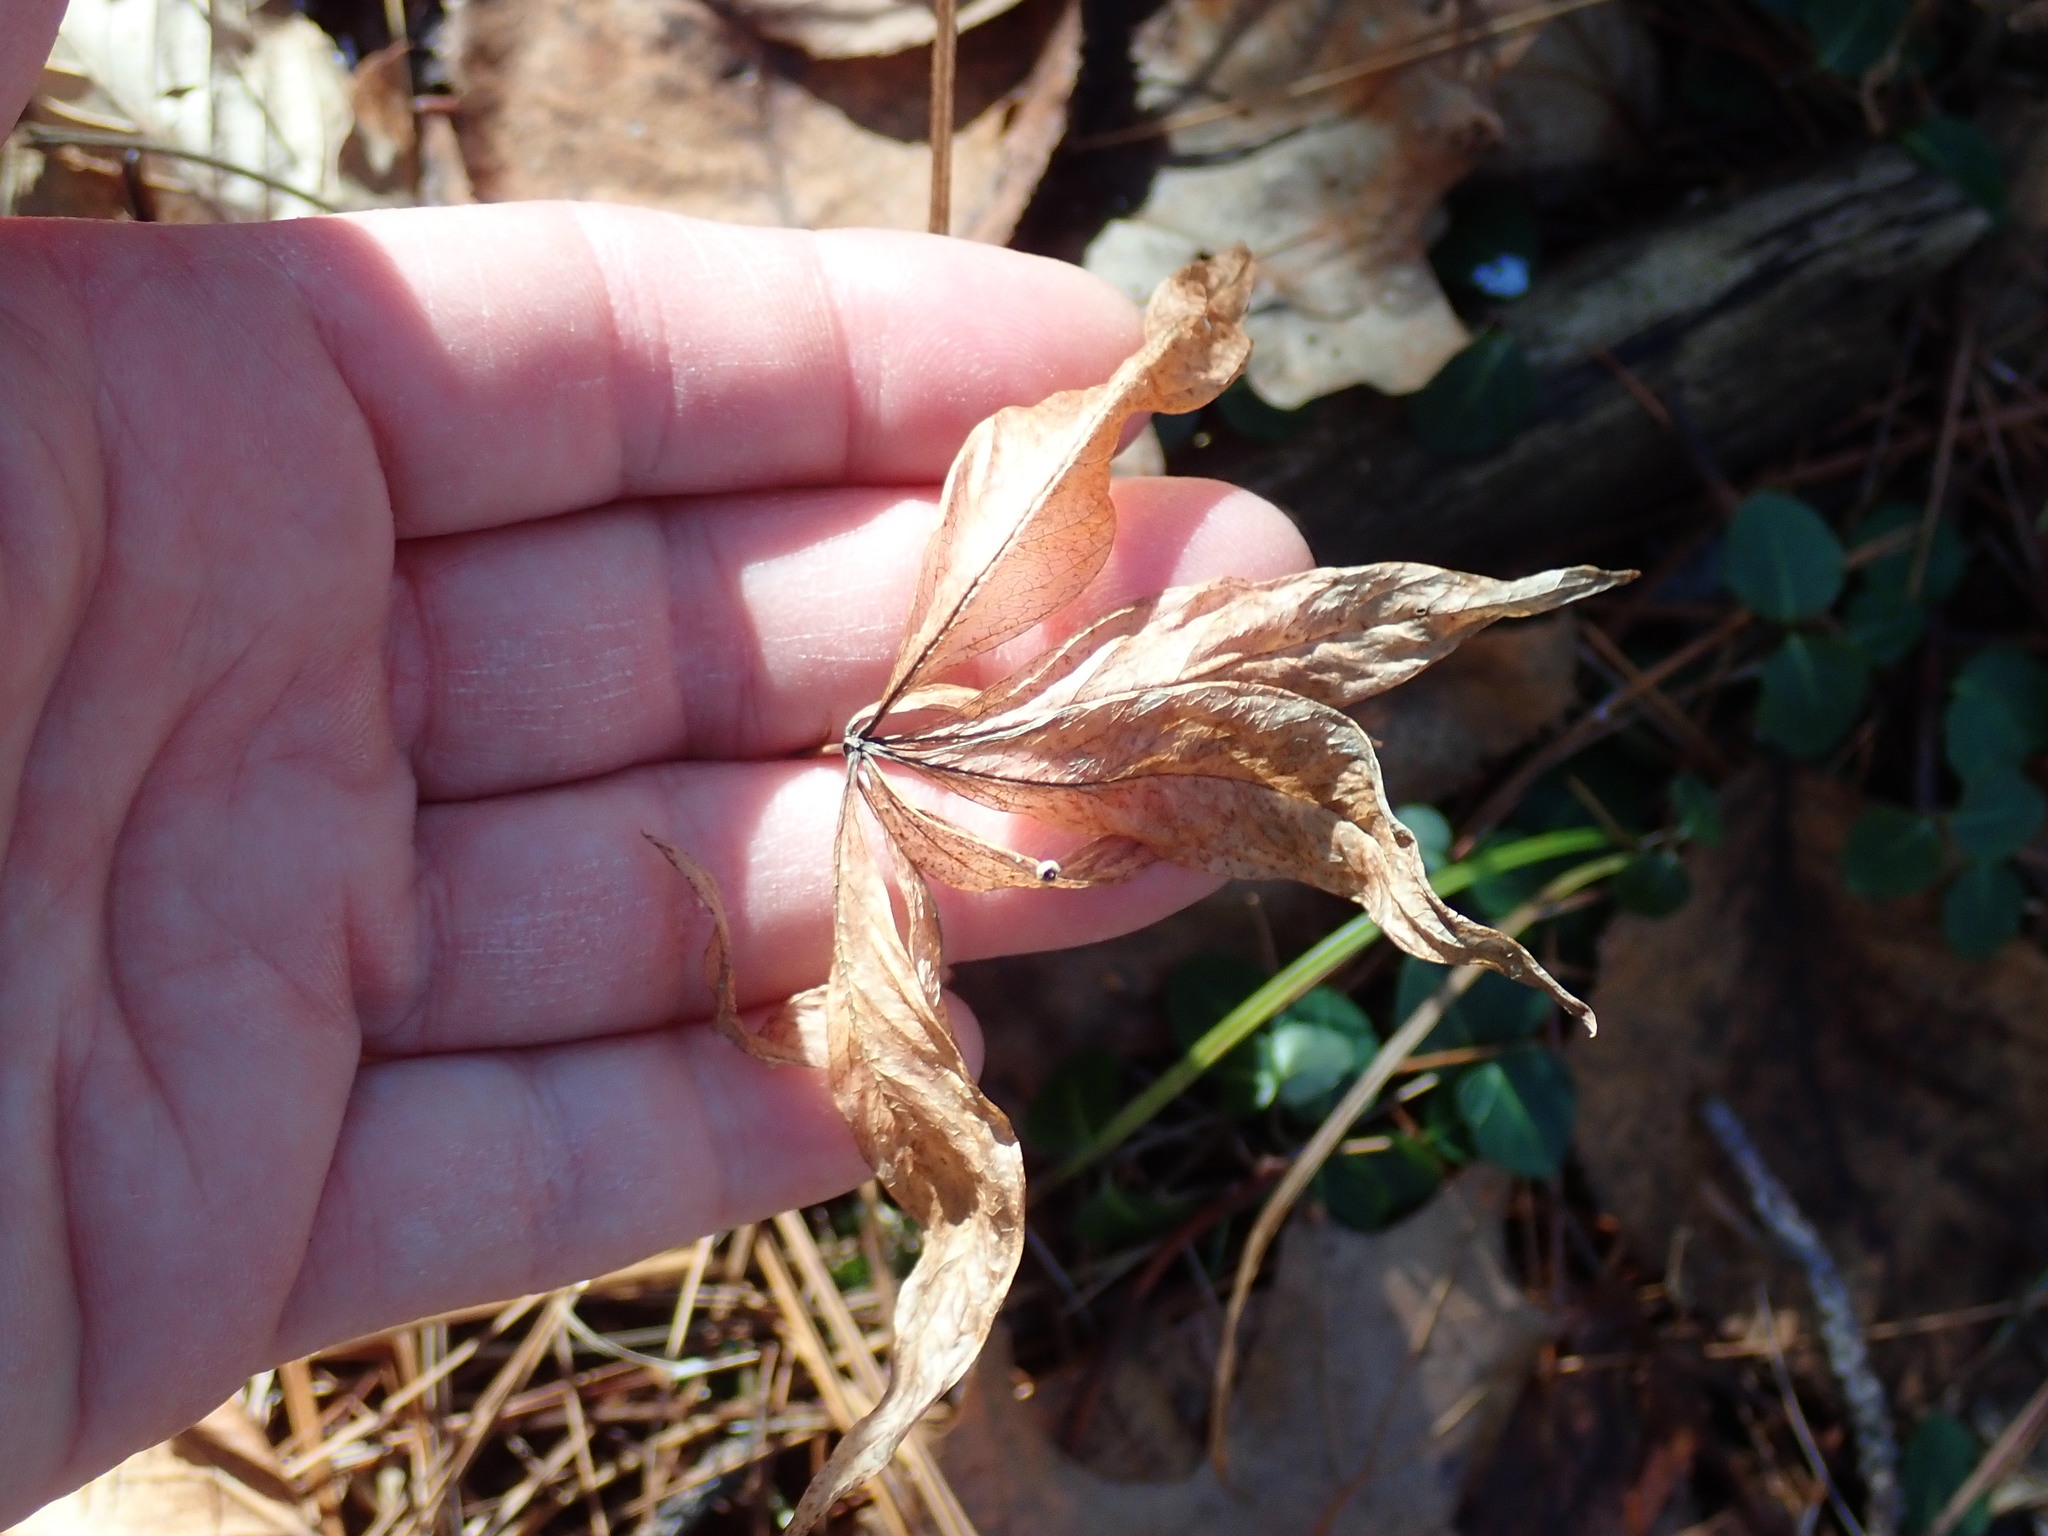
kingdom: Plantae
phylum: Tracheophyta
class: Magnoliopsida
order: Ericales
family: Primulaceae
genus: Lysimachia
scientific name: Lysimachia borealis
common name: American starflower
